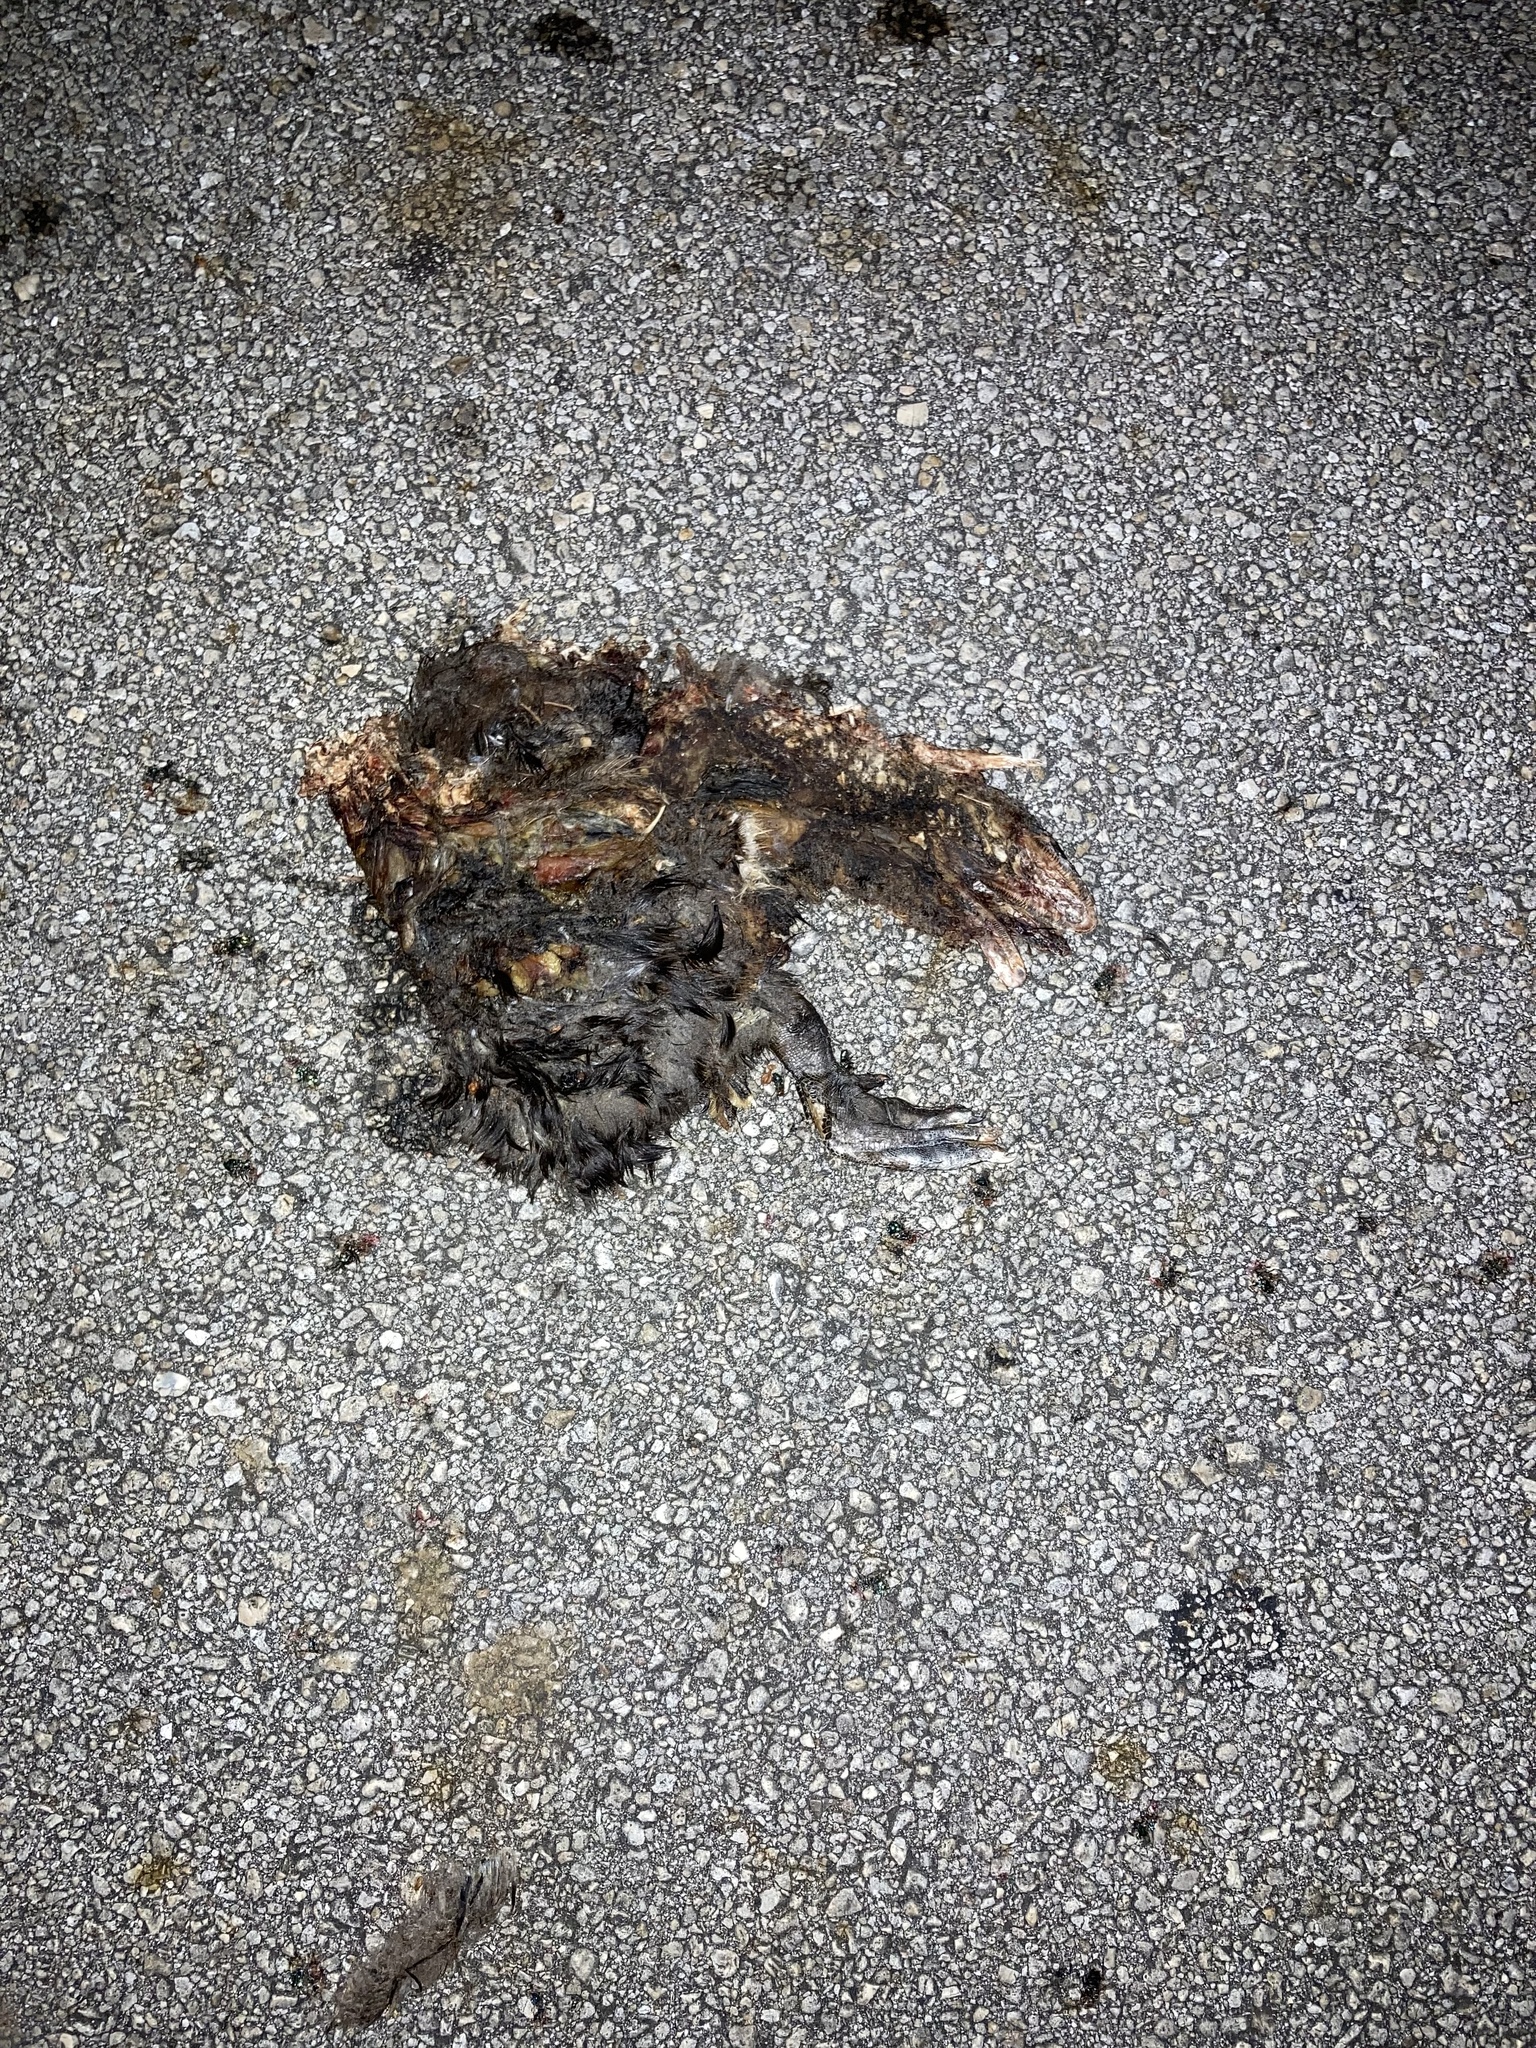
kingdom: Animalia
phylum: Chordata
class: Aves
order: Anseriformes
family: Anatidae
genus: Cairina
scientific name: Cairina moschata
